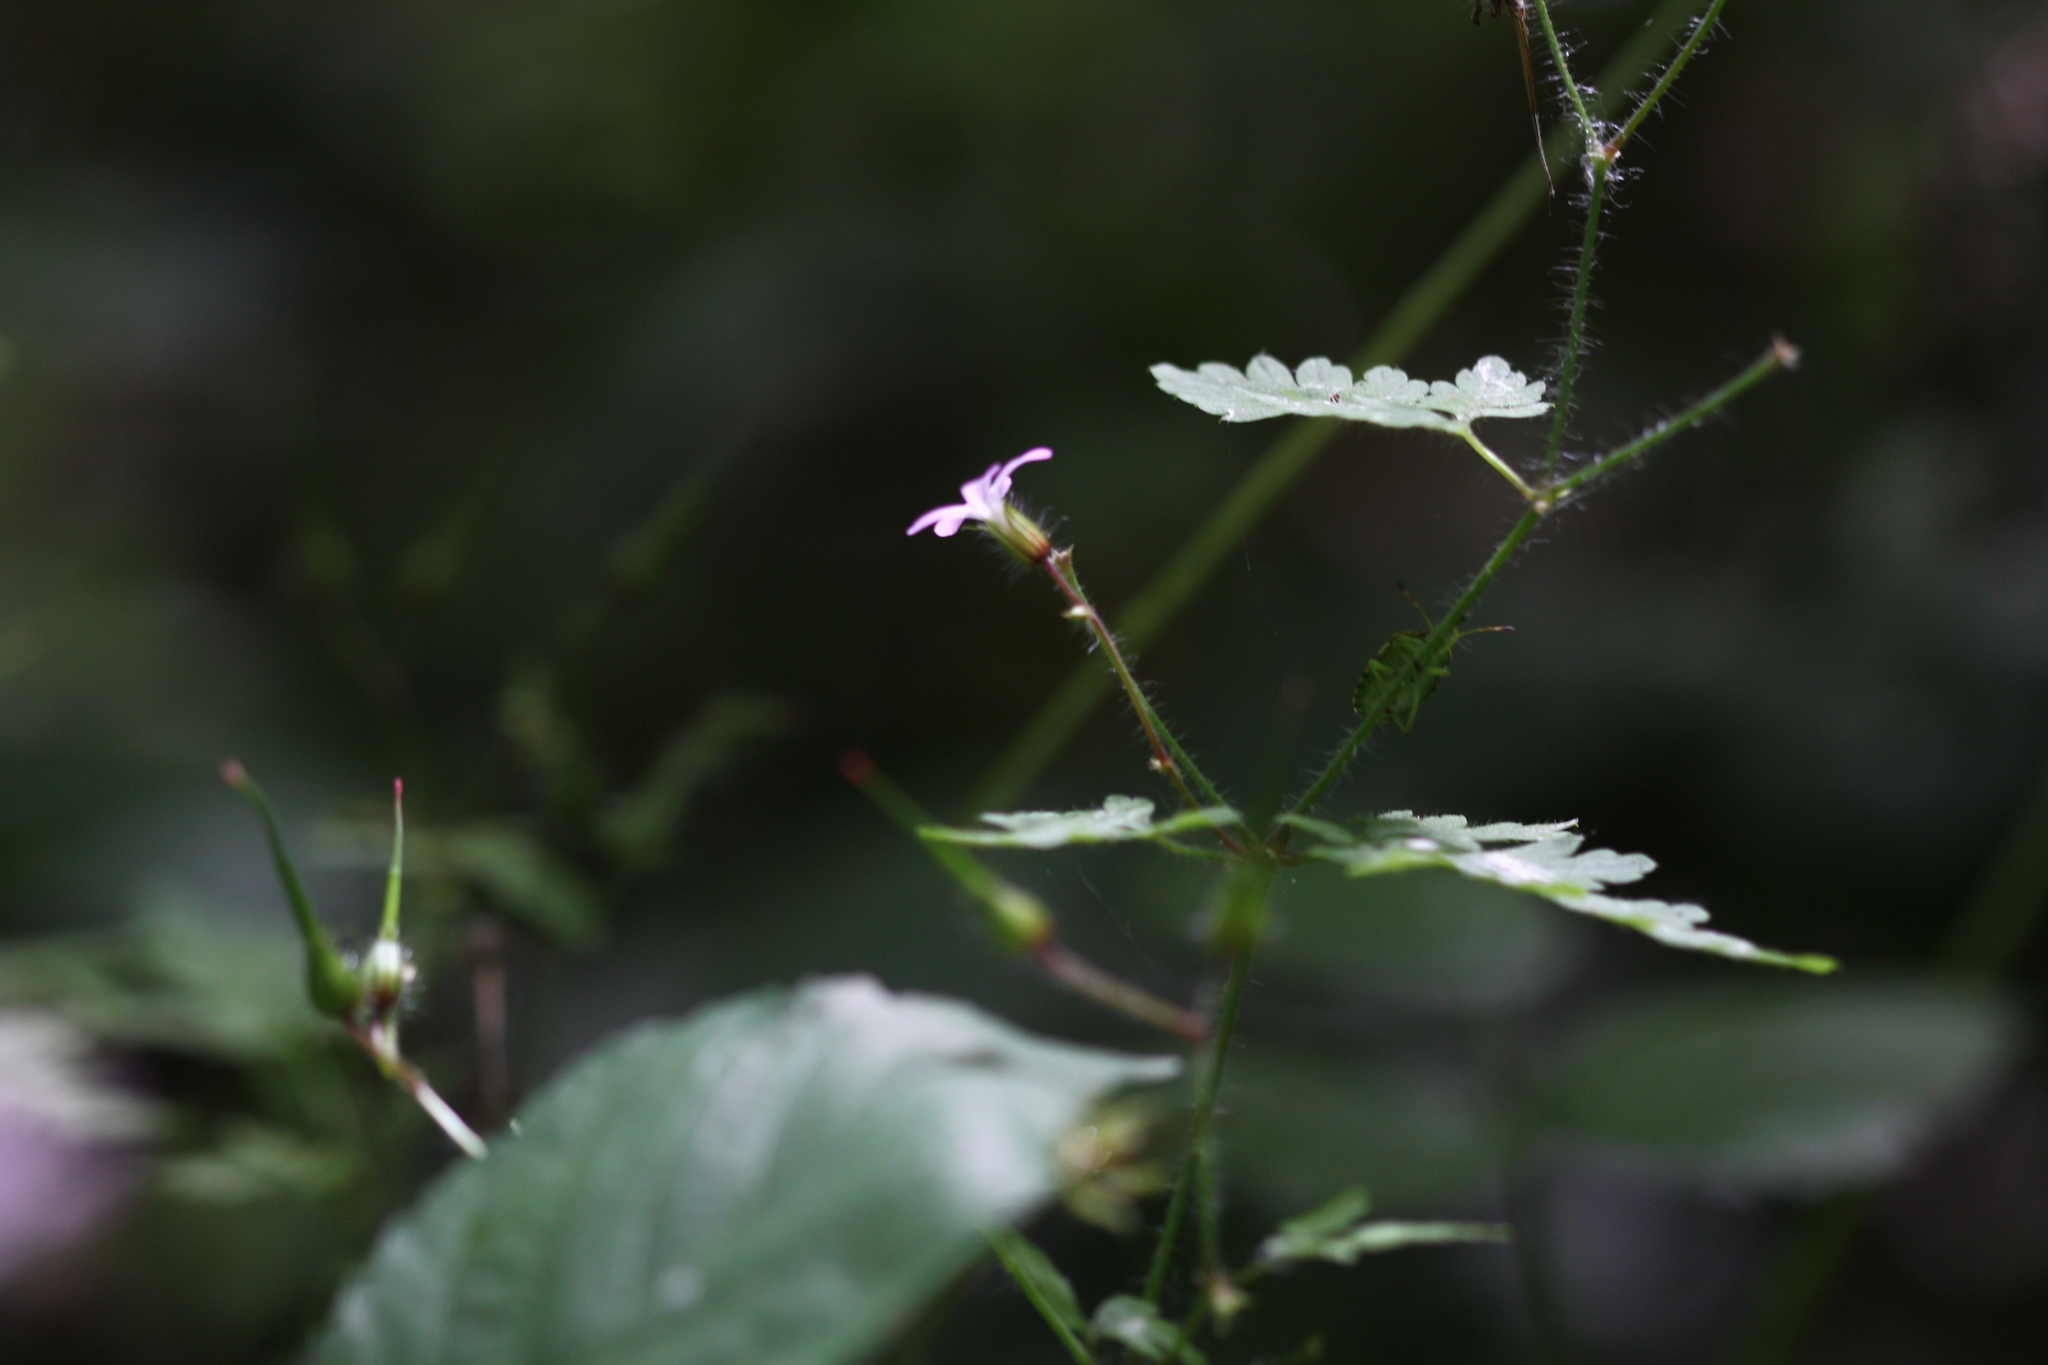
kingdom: Animalia
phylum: Arthropoda
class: Insecta
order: Hemiptera
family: Pentatomidae
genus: Palomena
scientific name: Palomena prasina
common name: Green shieldbug
